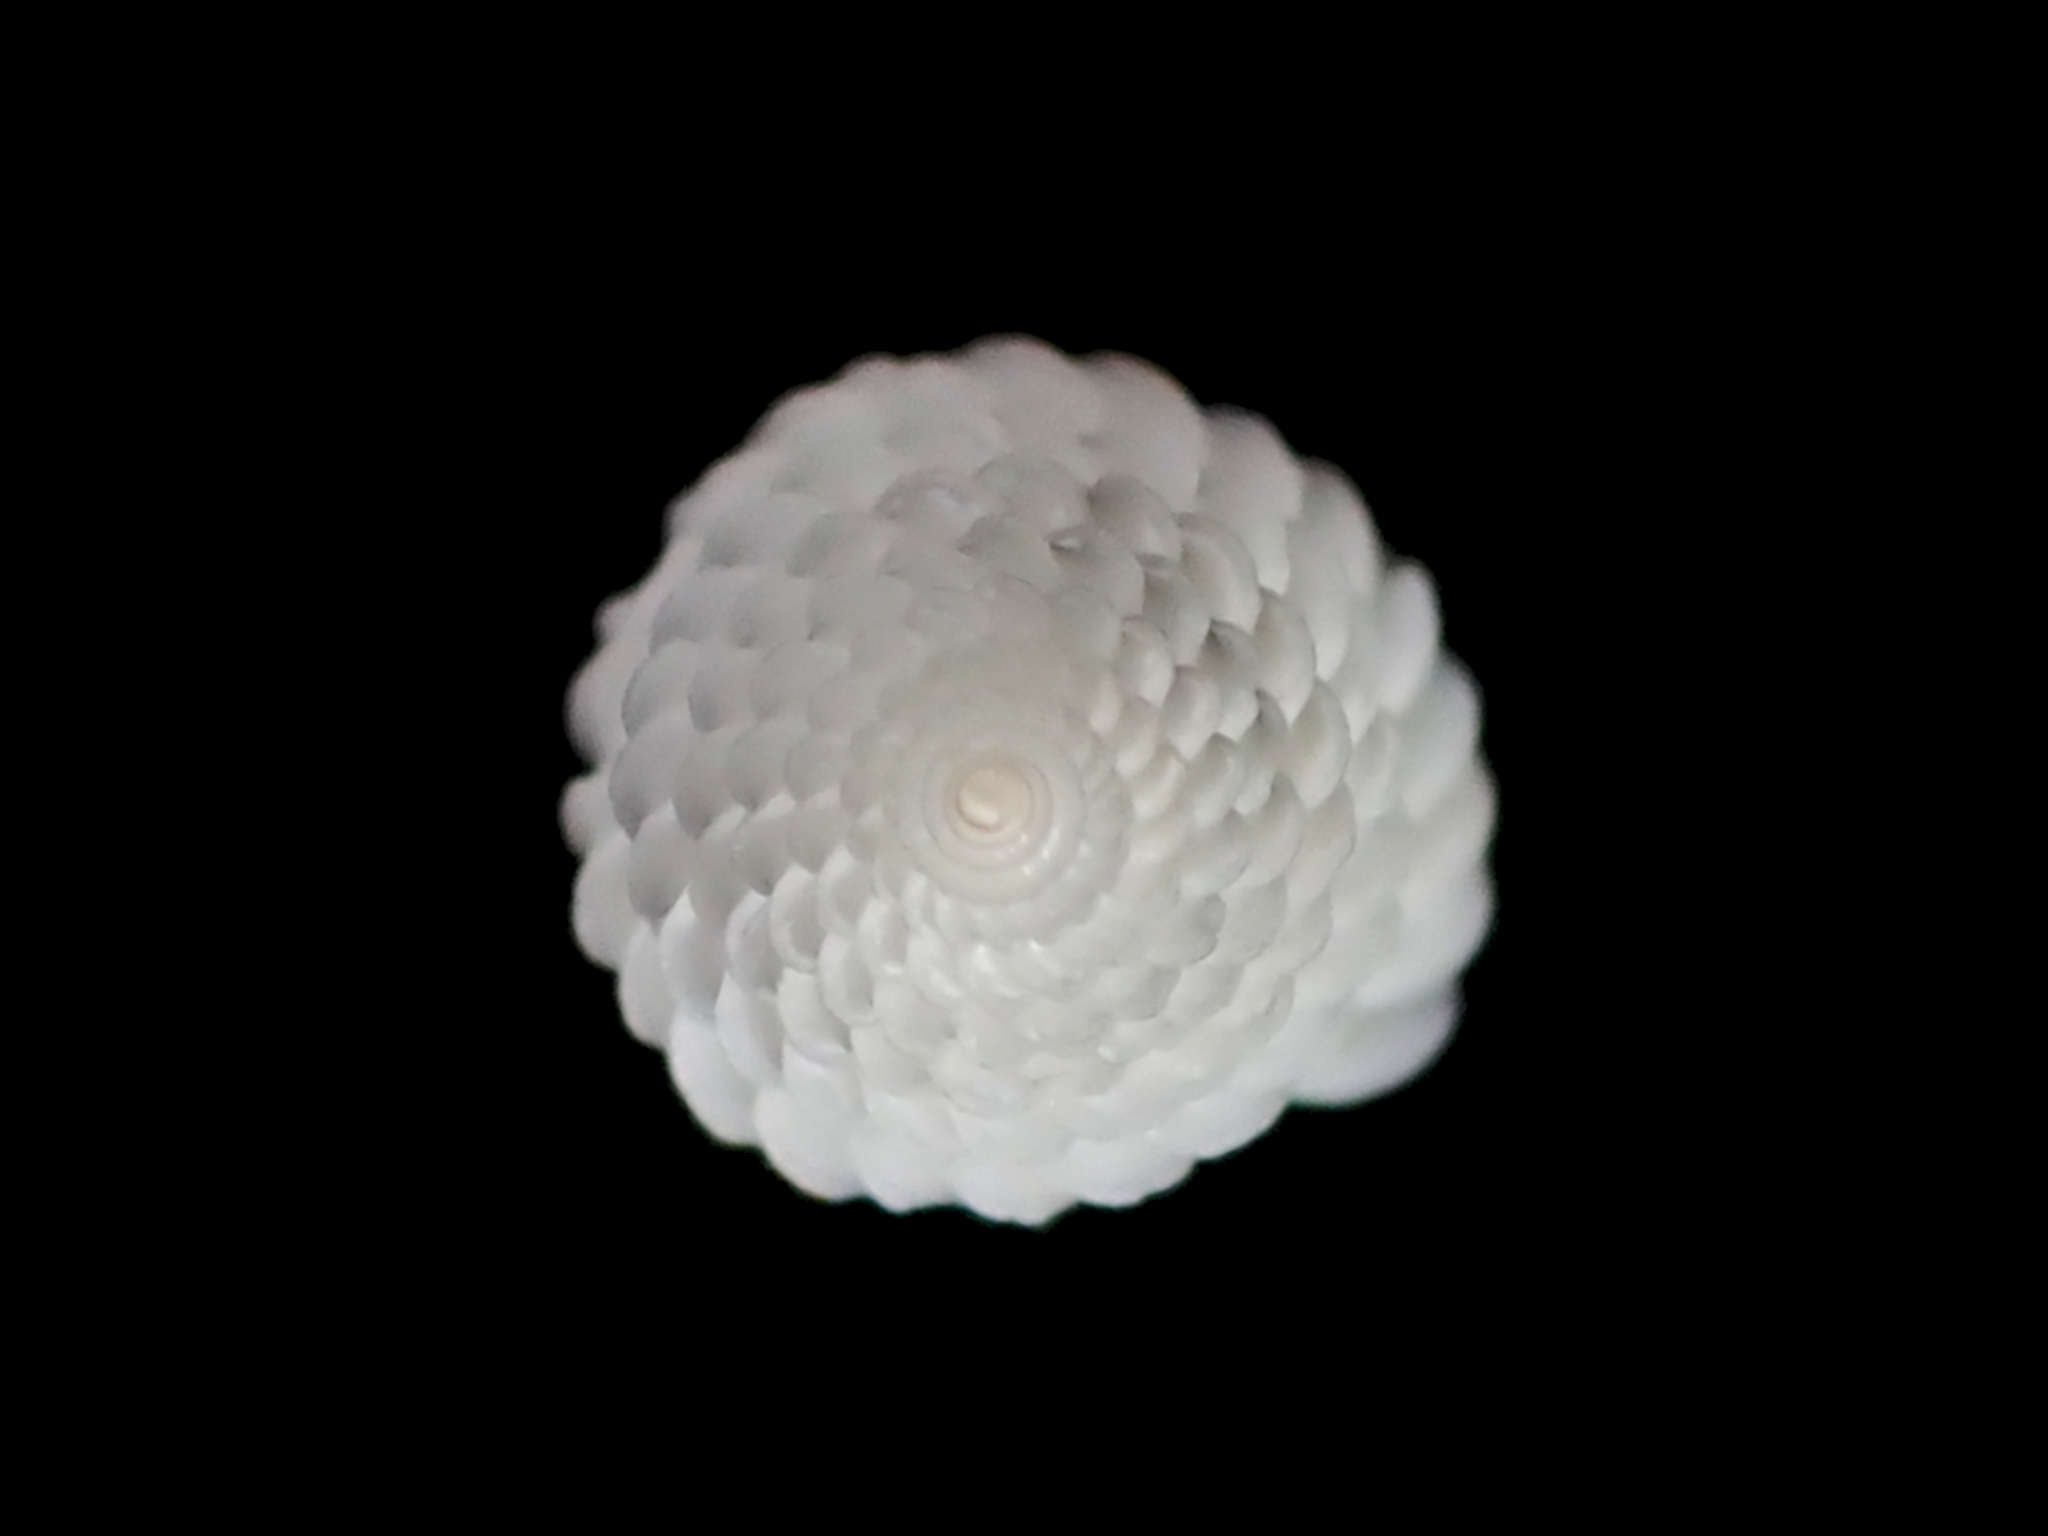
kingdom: Animalia
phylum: Mollusca
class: Gastropoda
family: Epitoniidae
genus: Epitonium
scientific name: Epitonium jukesianum
